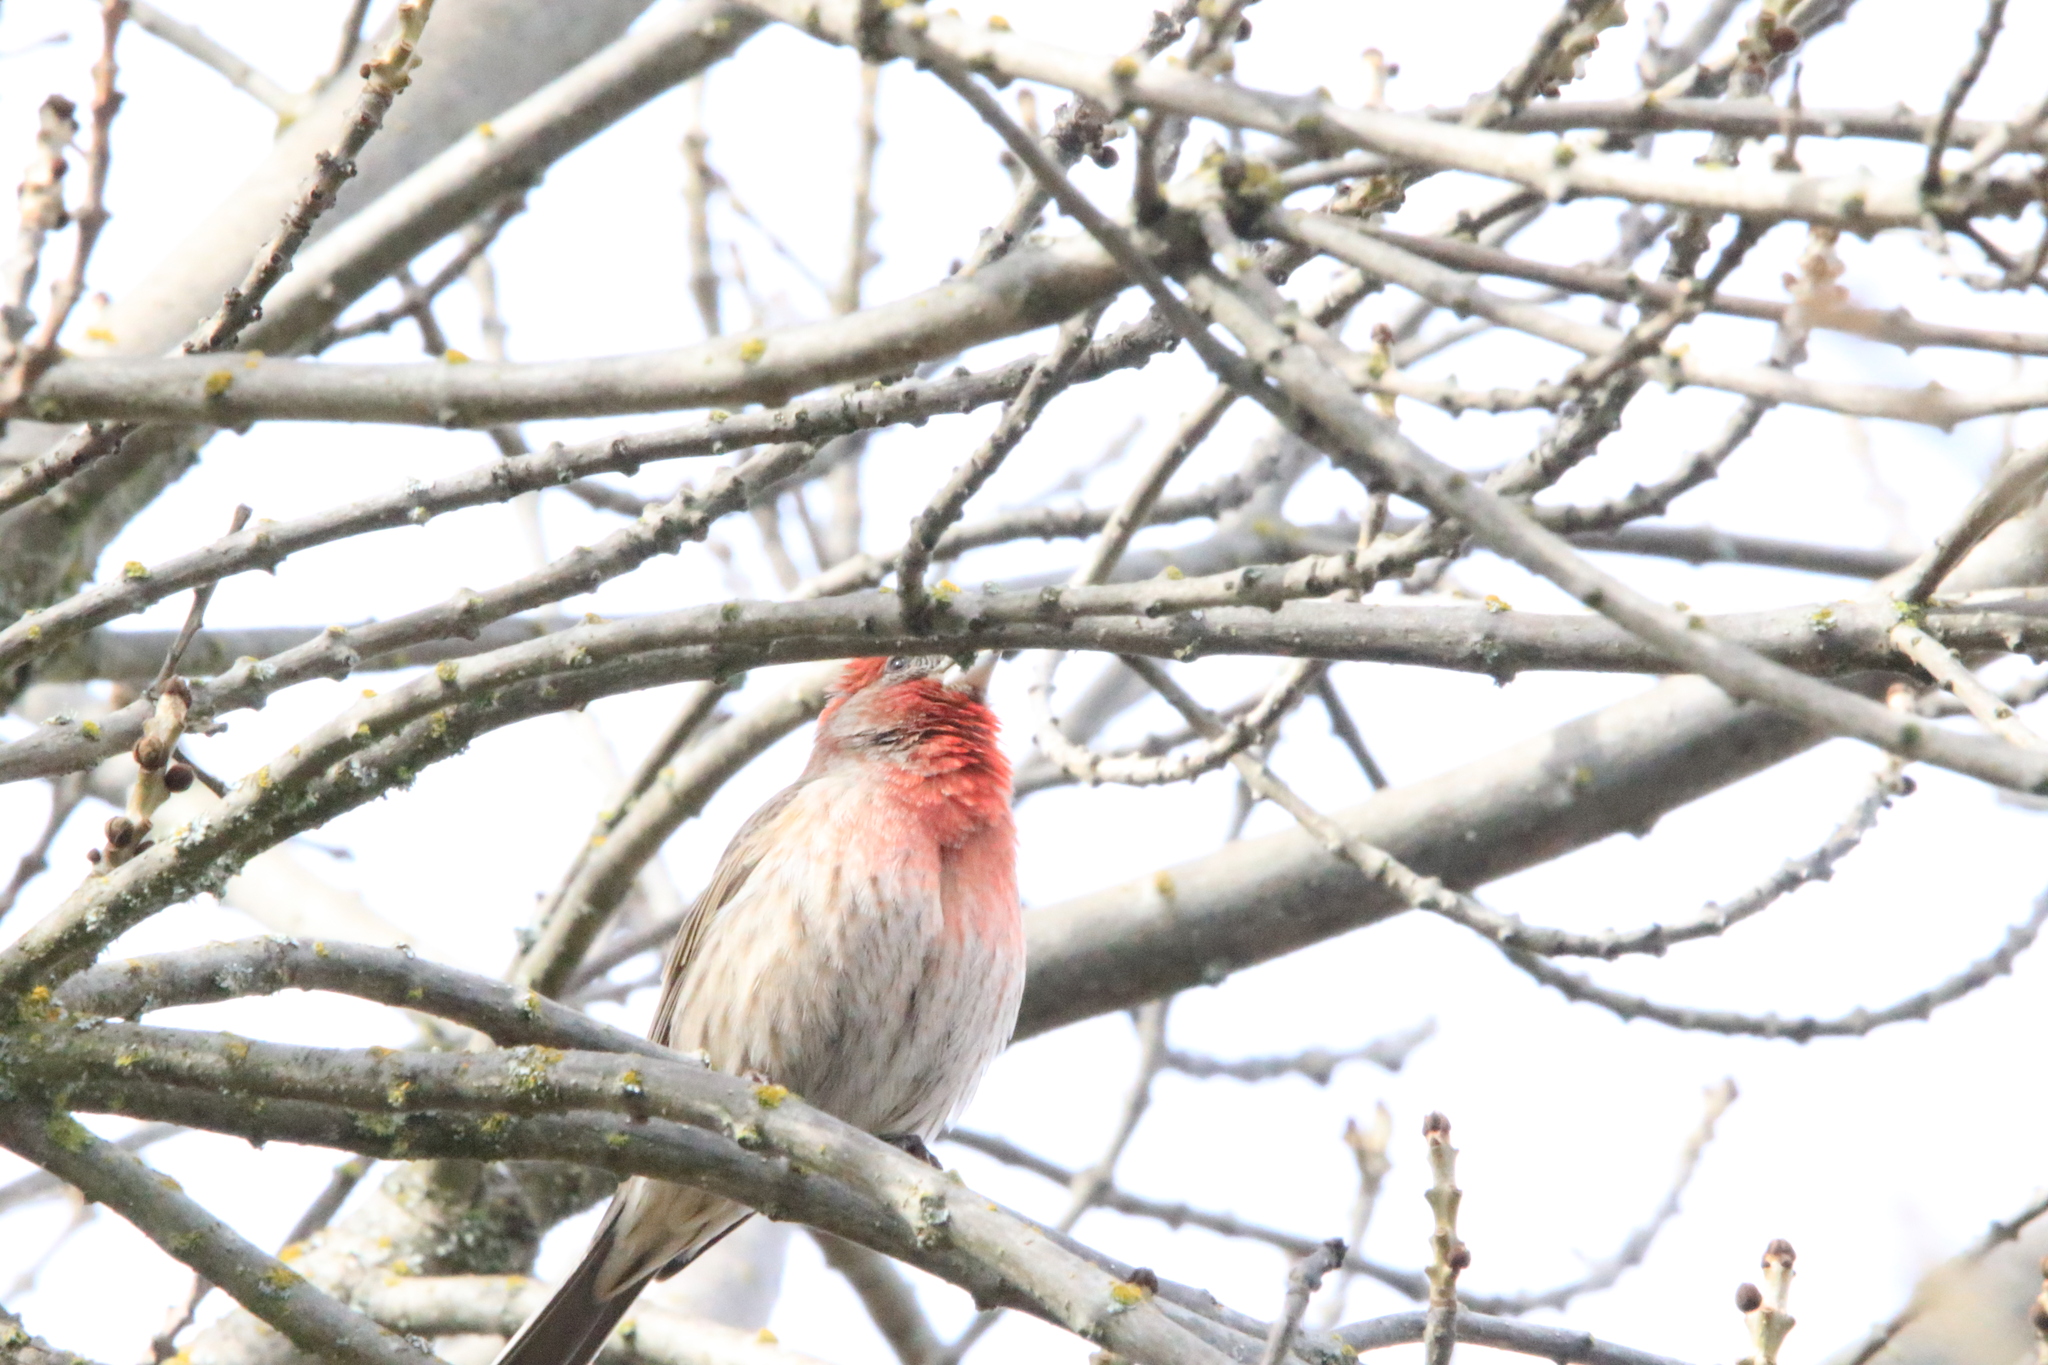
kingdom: Animalia
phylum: Chordata
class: Aves
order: Passeriformes
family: Fringillidae
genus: Haemorhous
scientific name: Haemorhous mexicanus
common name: House finch
